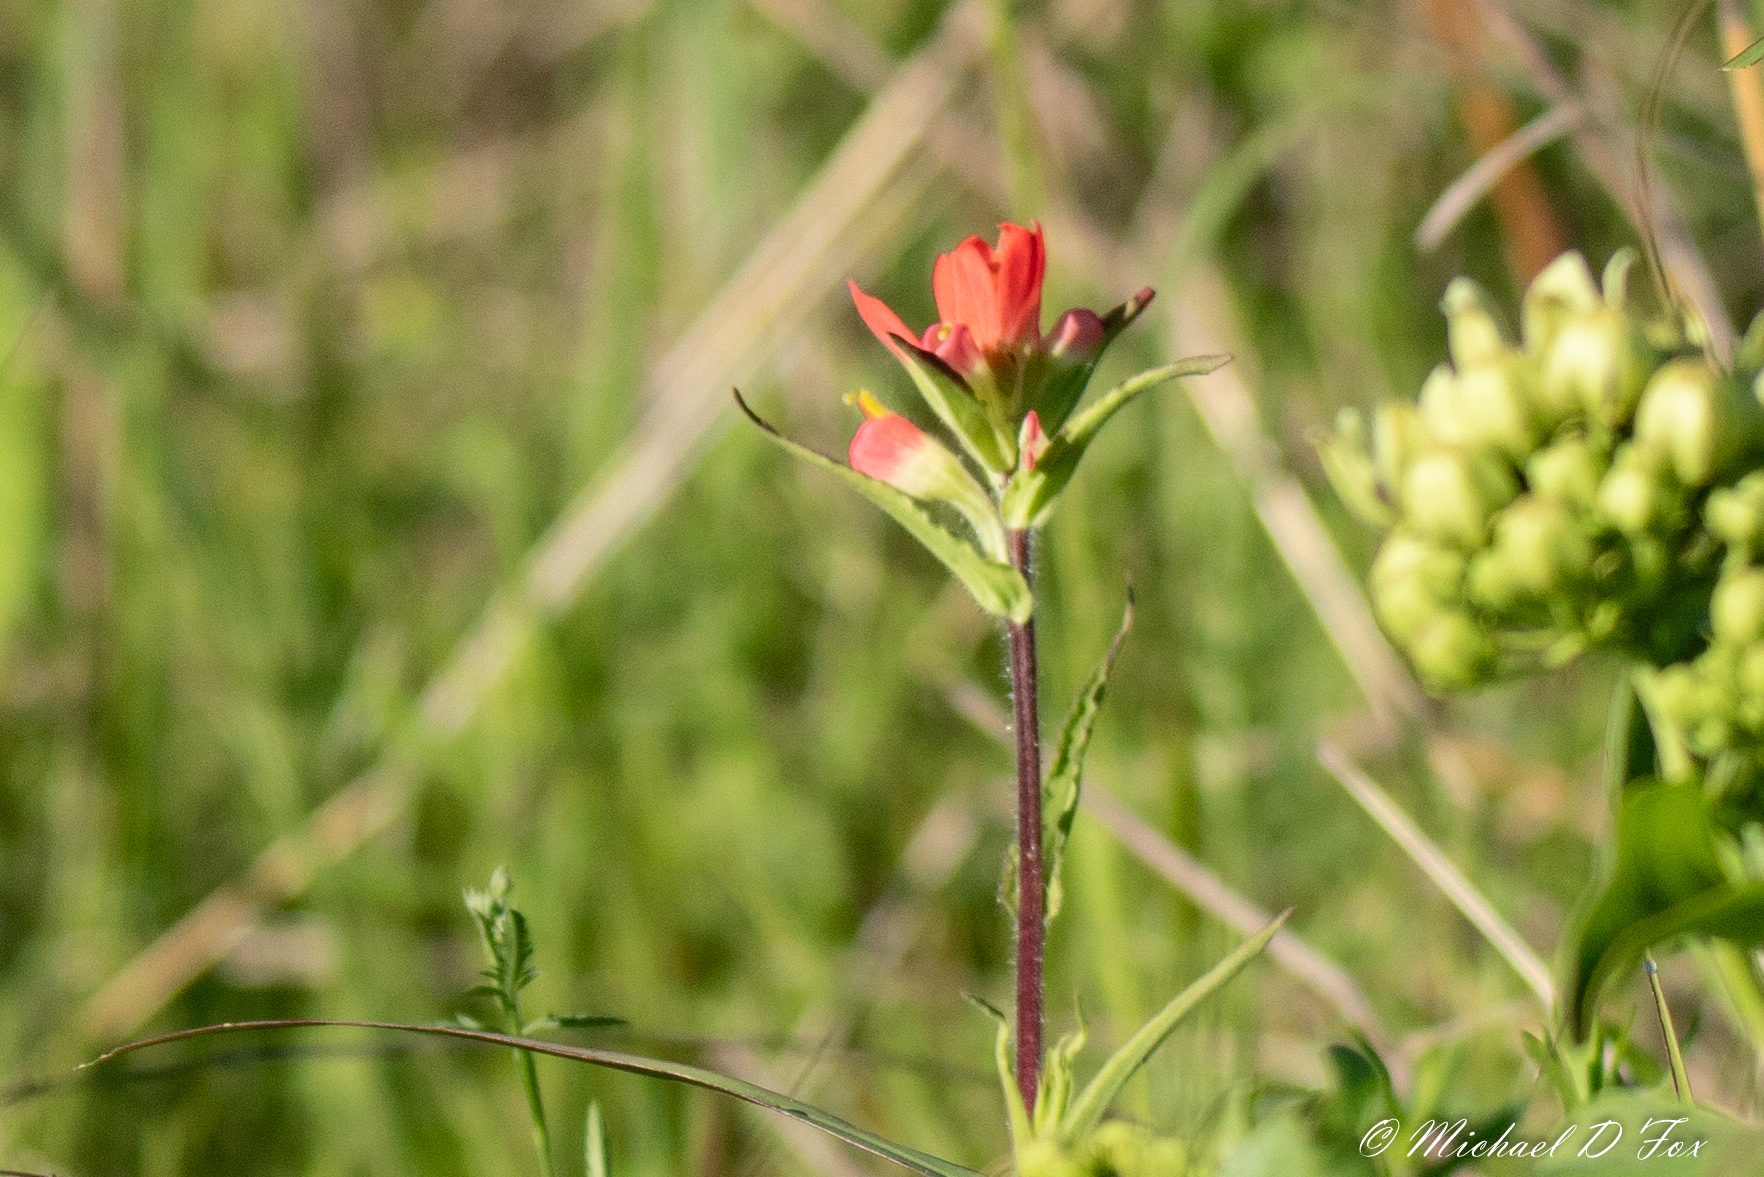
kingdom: Plantae
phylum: Tracheophyta
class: Magnoliopsida
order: Lamiales
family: Orobanchaceae
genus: Castilleja
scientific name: Castilleja indivisa
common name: Texas paintbrush
